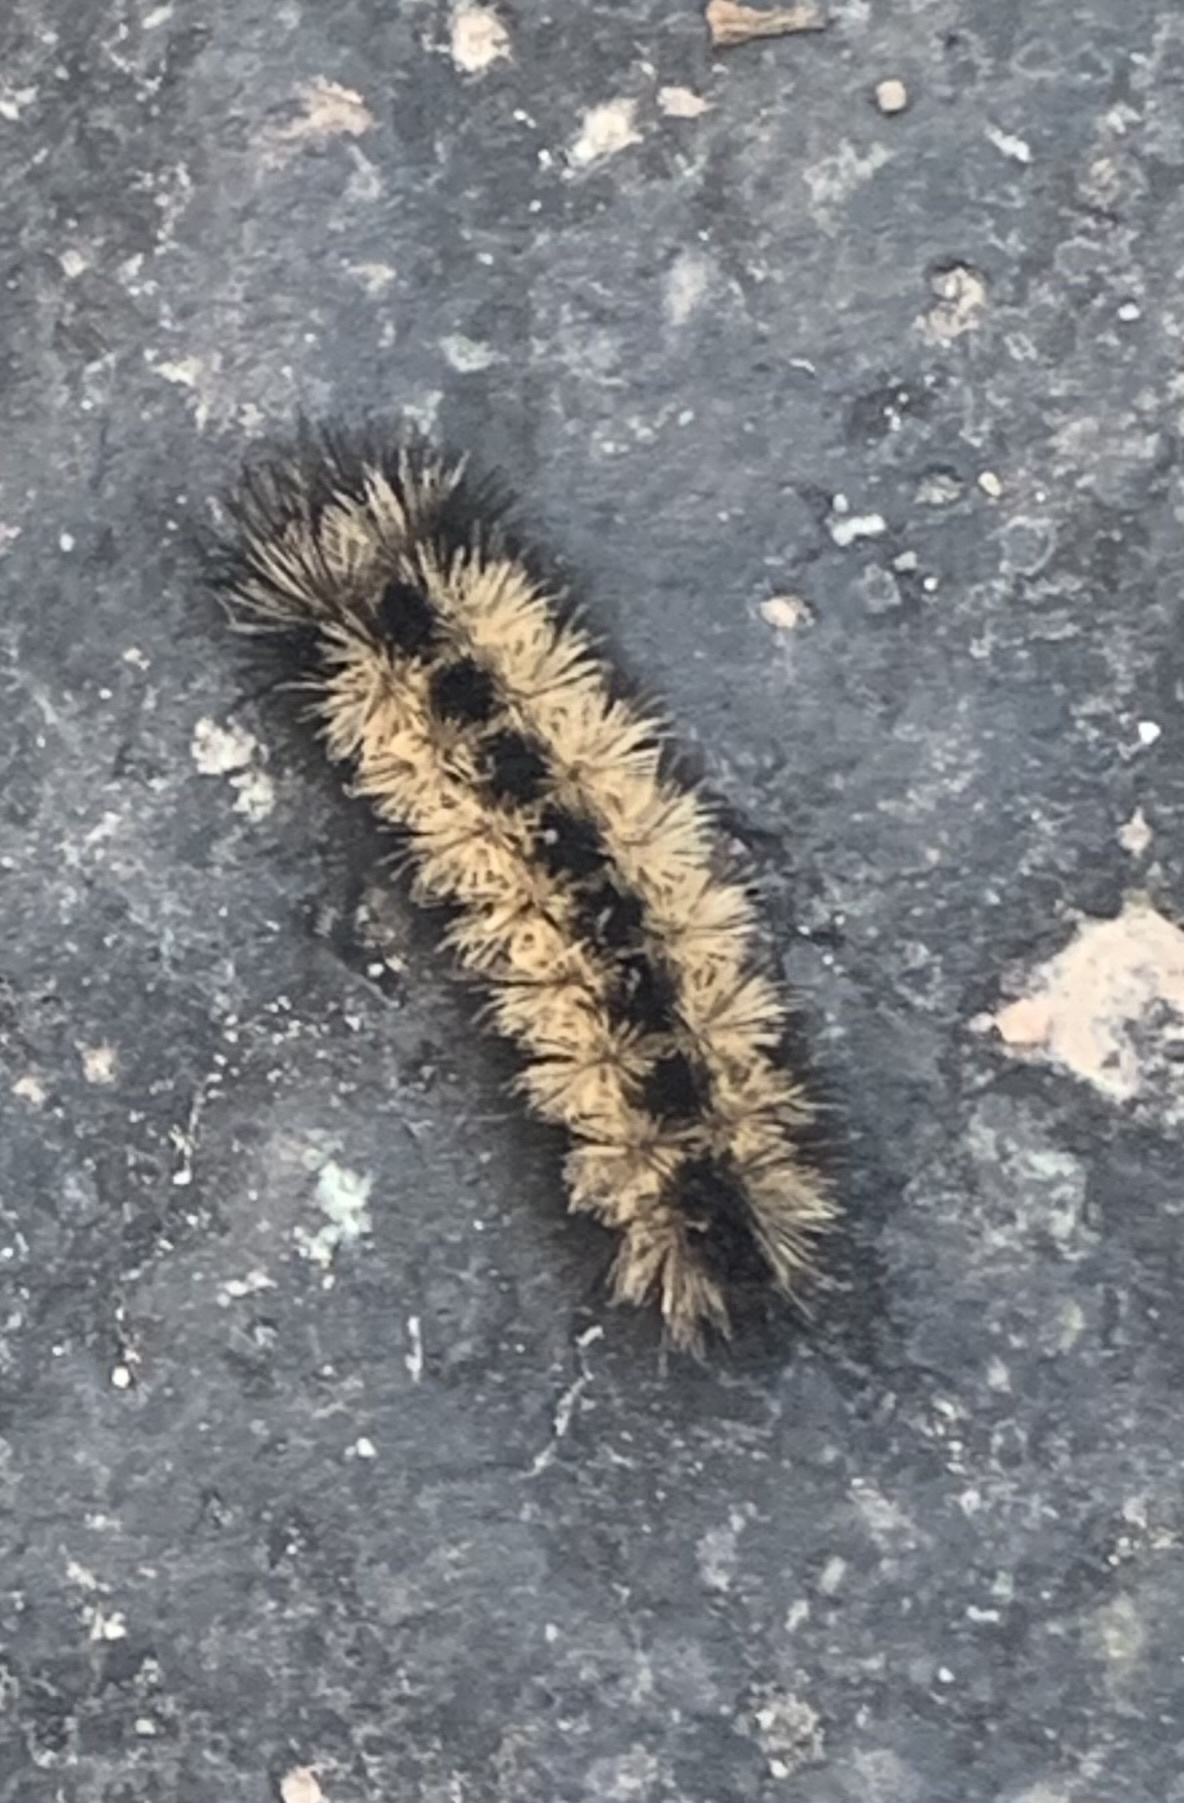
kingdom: Animalia
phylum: Arthropoda
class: Insecta
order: Lepidoptera
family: Erebidae
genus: Ctenucha
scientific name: Ctenucha virginica
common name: Virginia ctenucha moth
